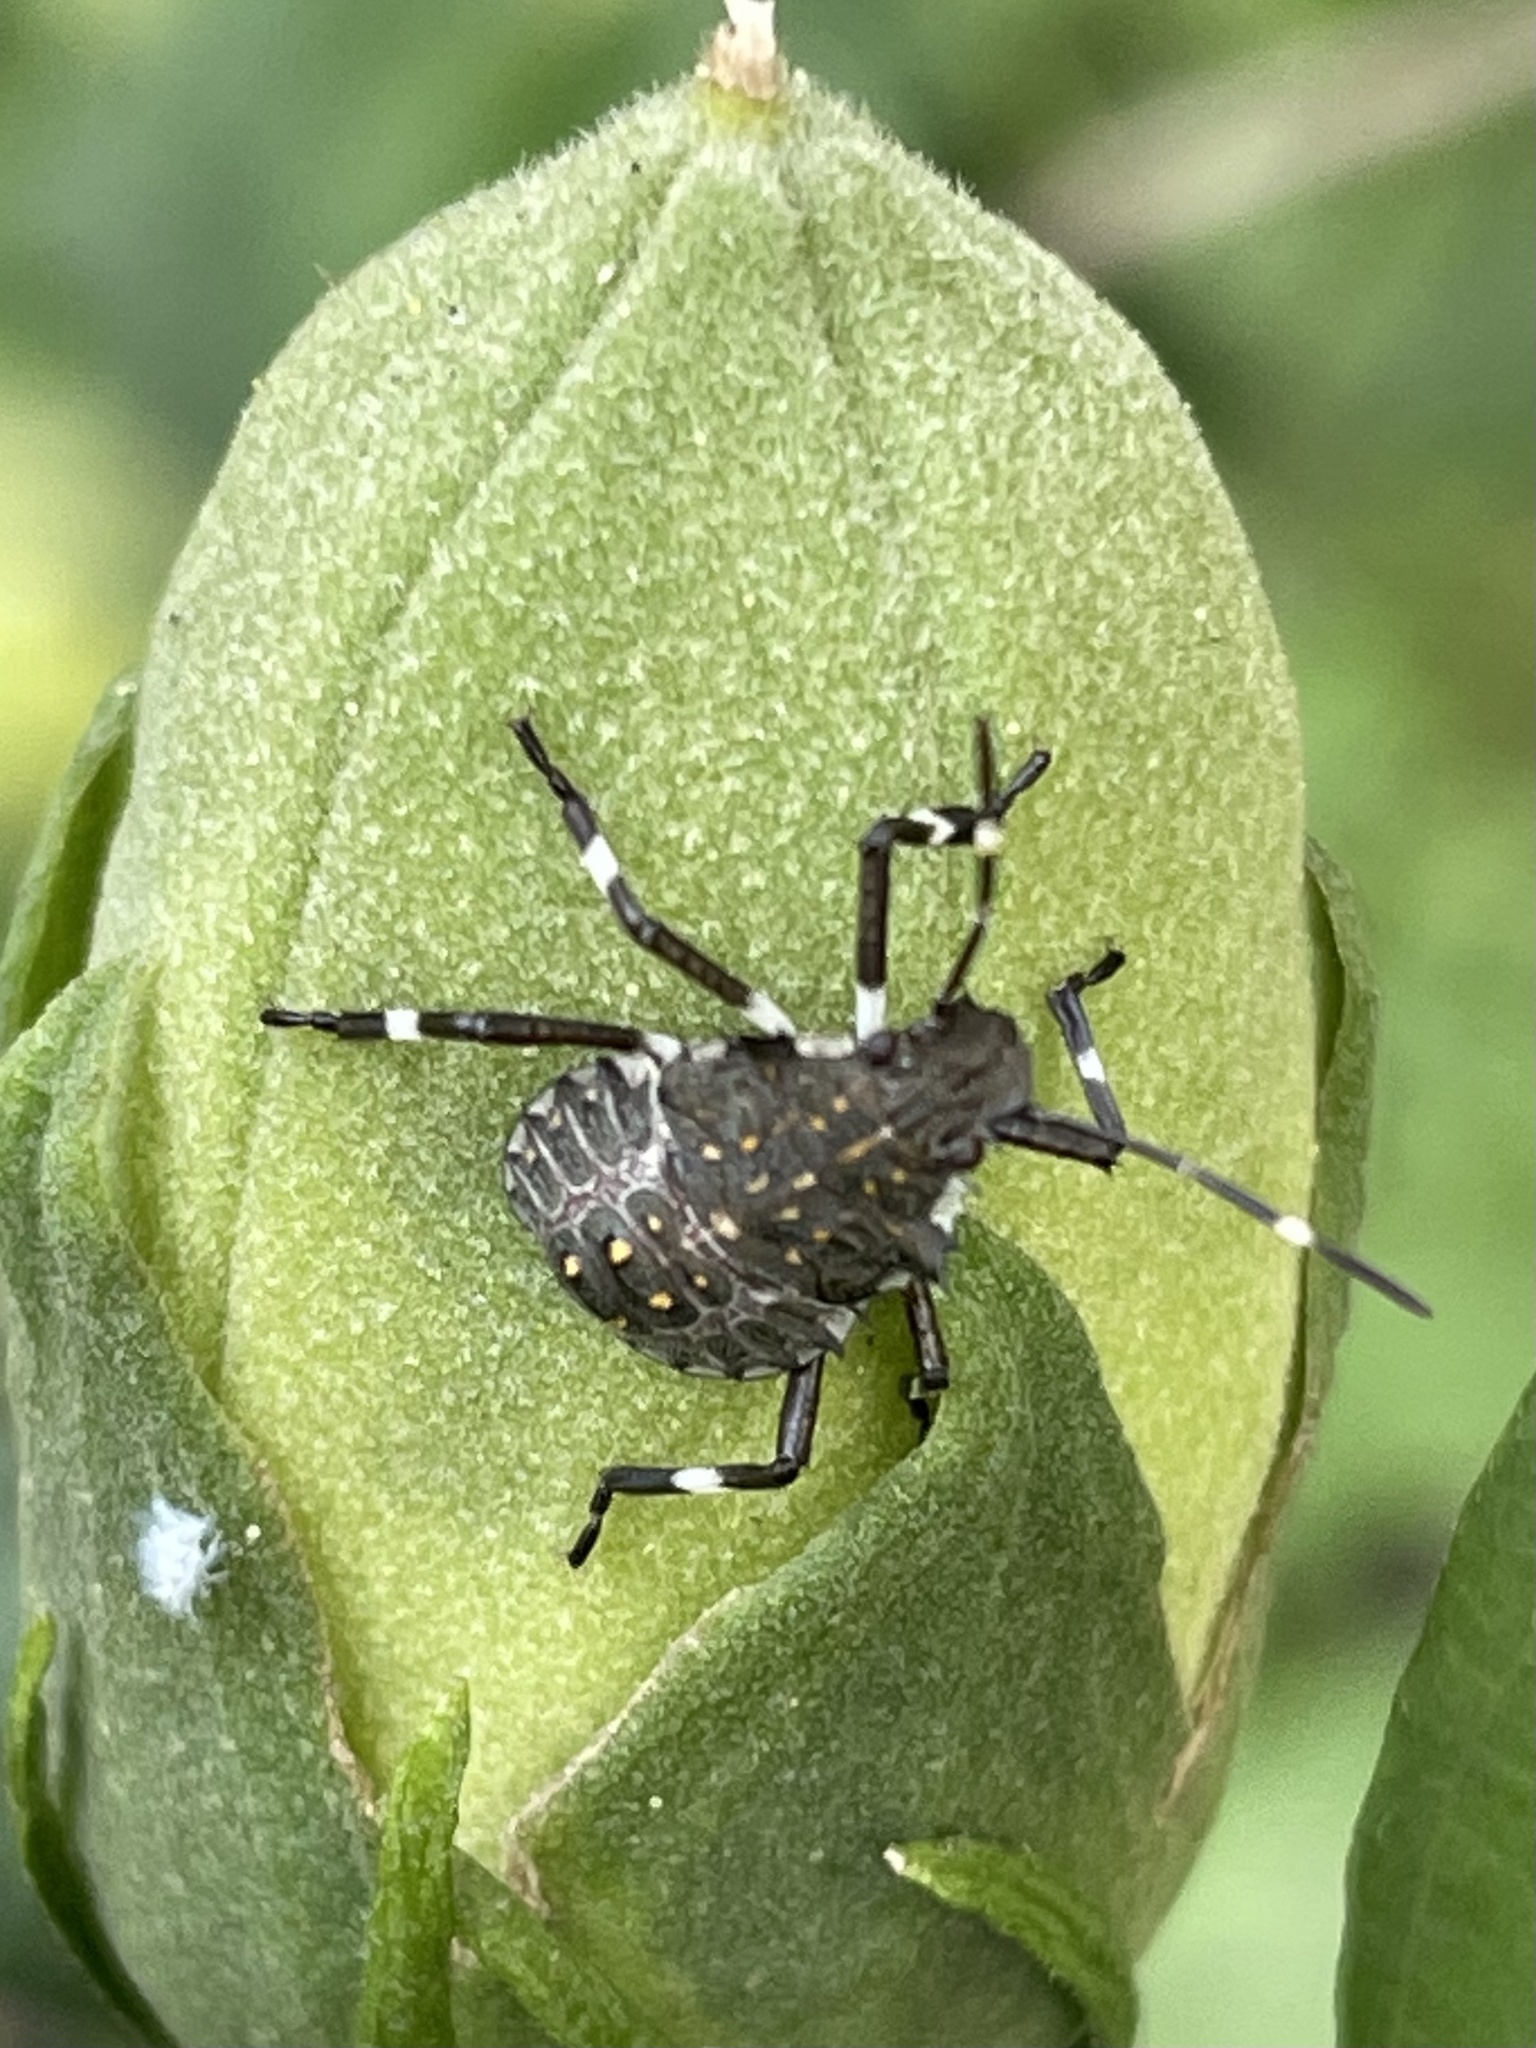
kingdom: Animalia
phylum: Arthropoda
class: Insecta
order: Hemiptera
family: Pentatomidae
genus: Halyomorpha
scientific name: Halyomorpha halys
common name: Brown marmorated stink bug
